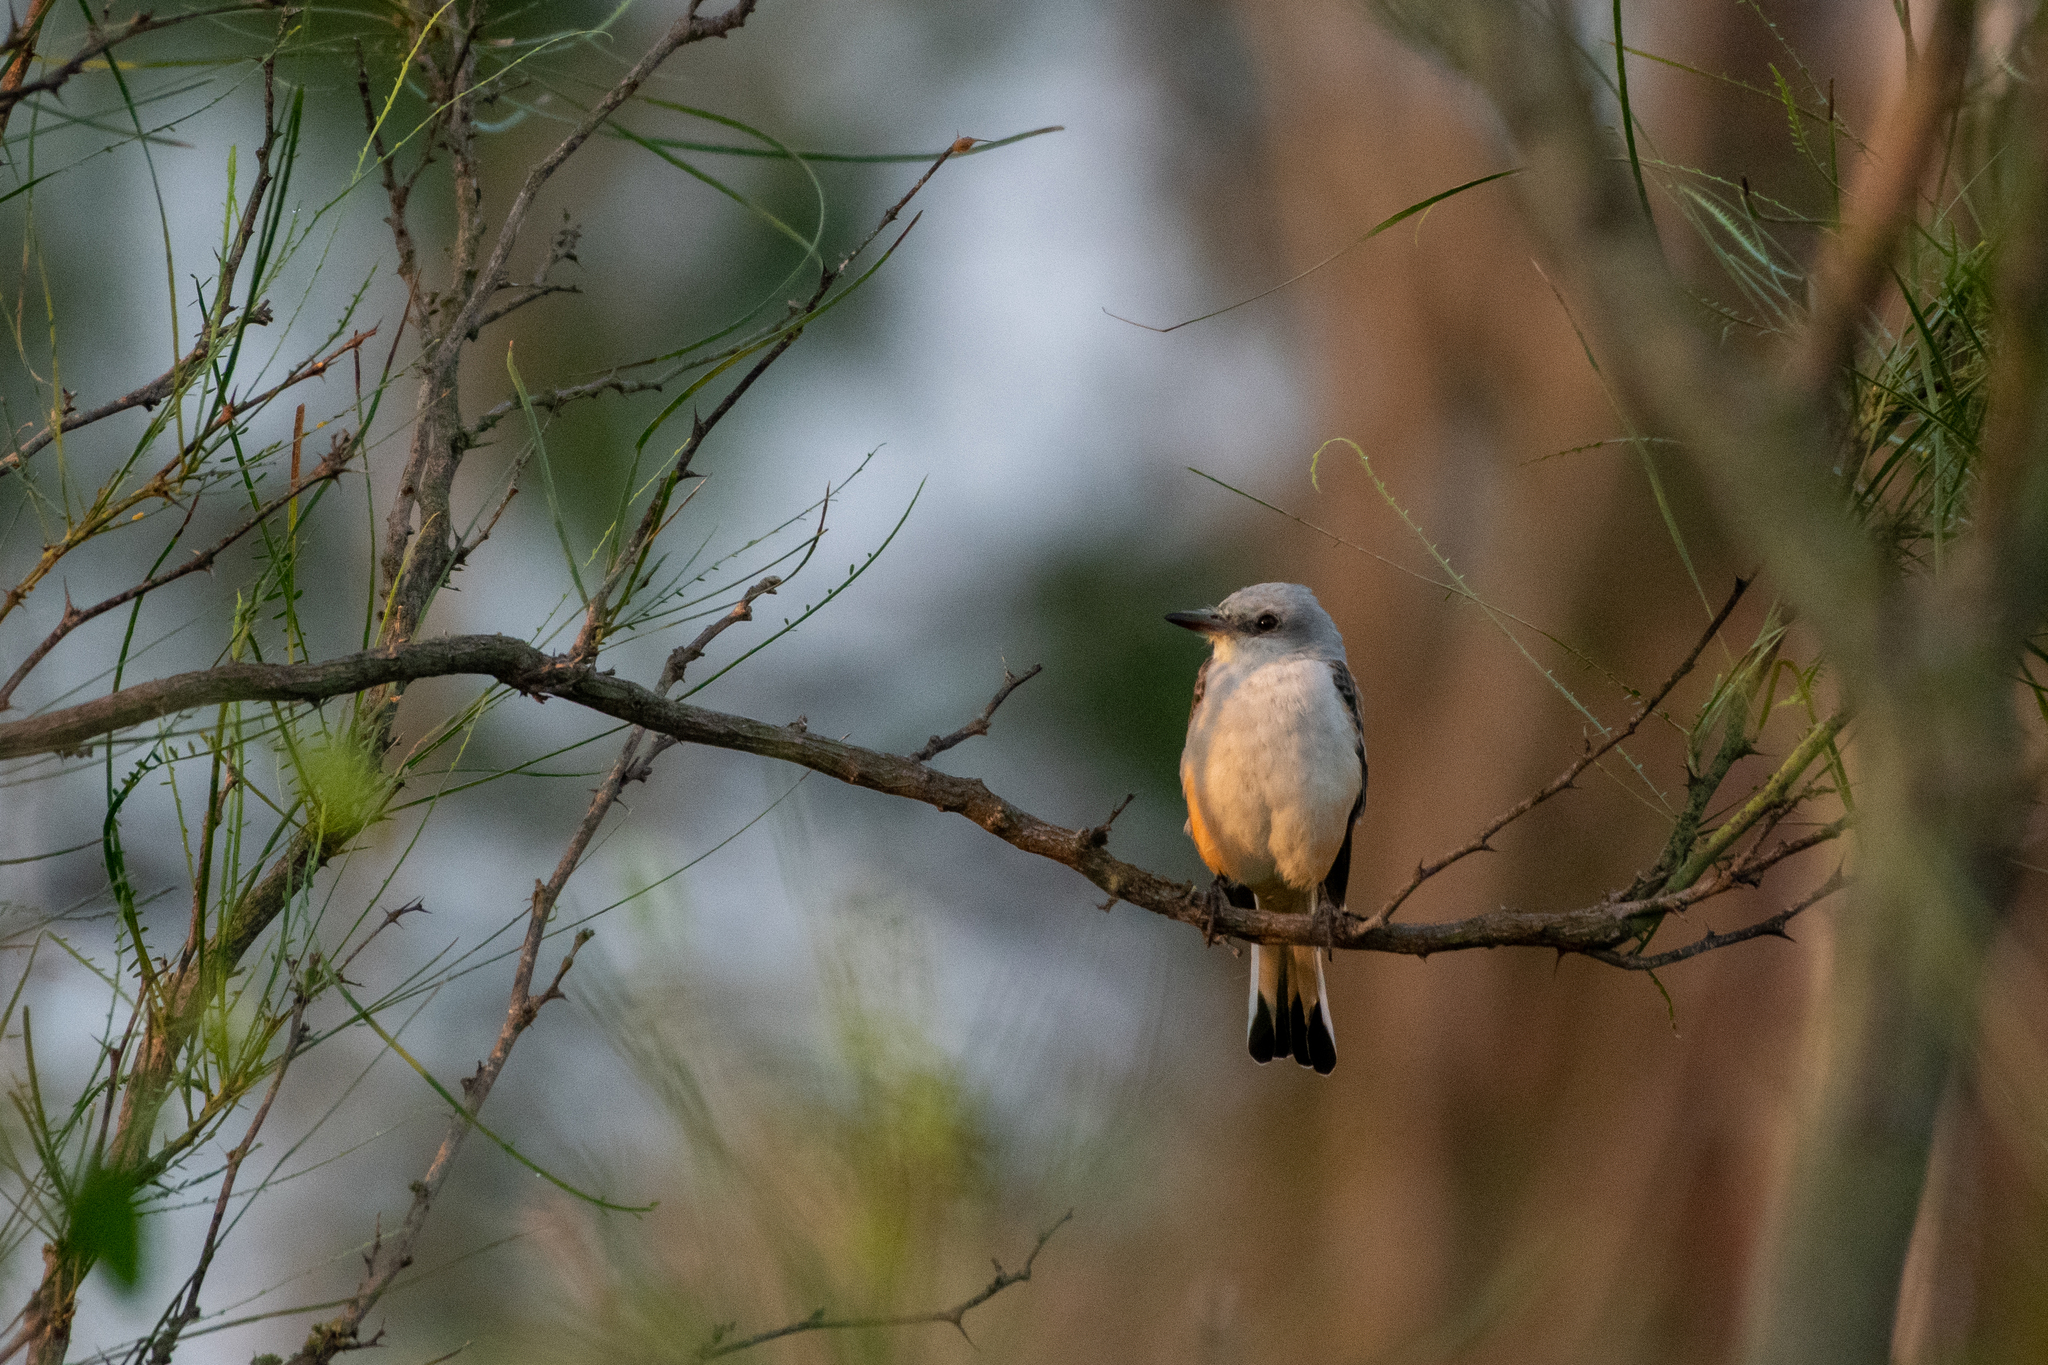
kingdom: Animalia
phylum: Chordata
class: Aves
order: Passeriformes
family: Tyrannidae
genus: Tyrannus
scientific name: Tyrannus forficatus
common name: Scissor-tailed flycatcher
